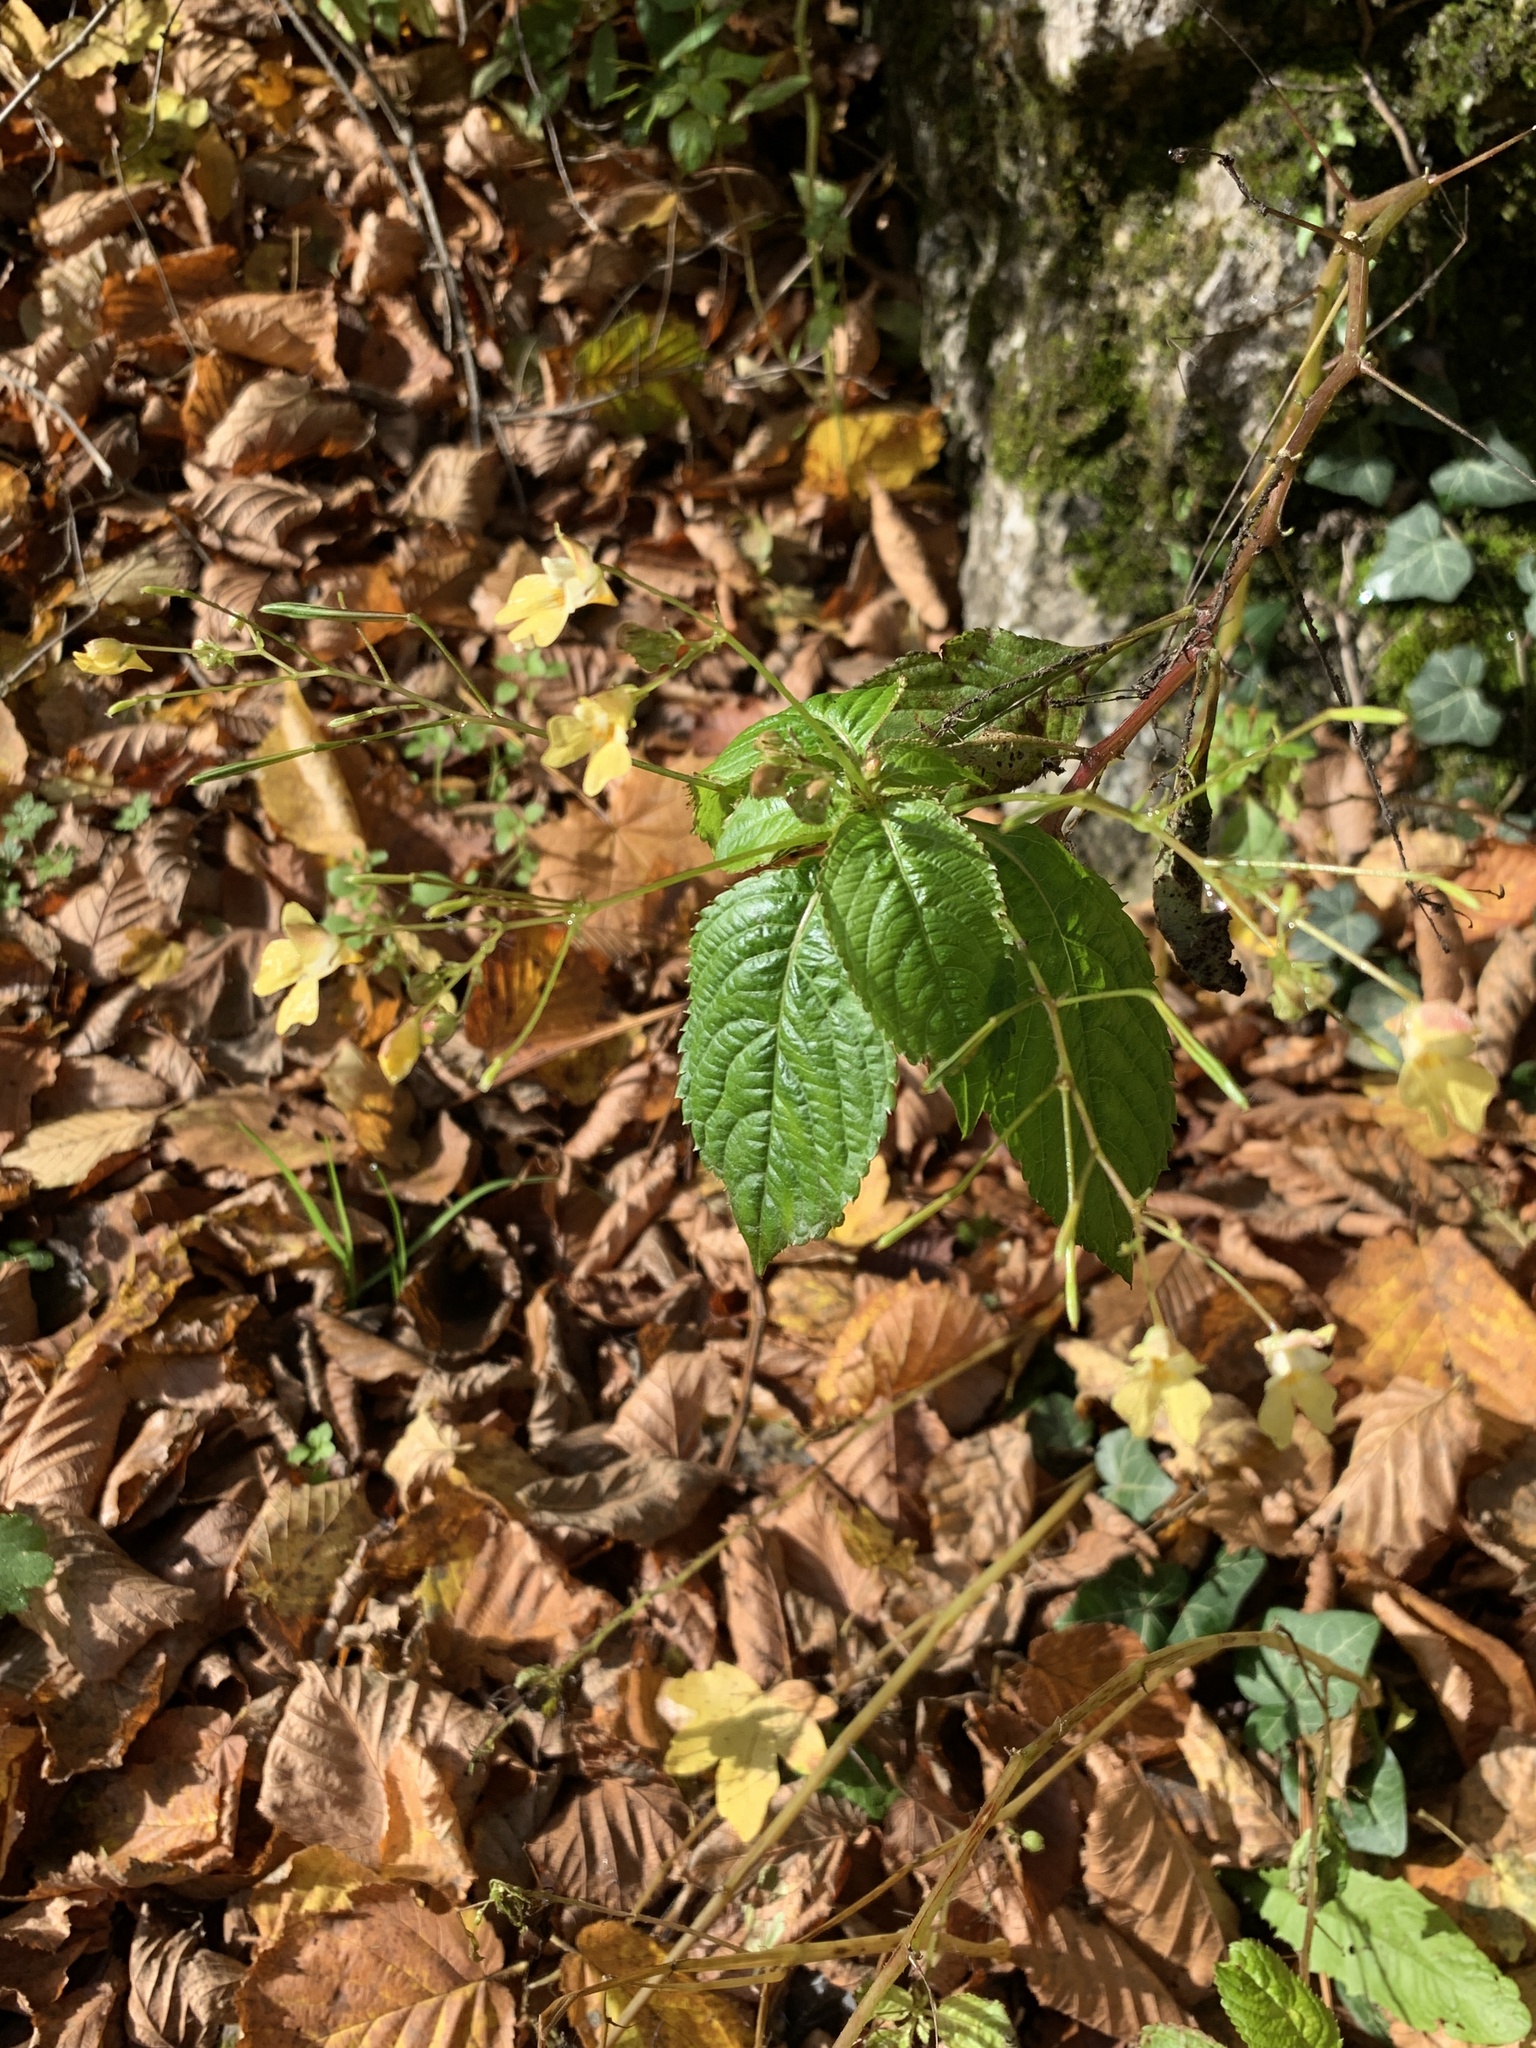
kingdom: Plantae
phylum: Tracheophyta
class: Magnoliopsida
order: Ericales
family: Balsaminaceae
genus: Impatiens
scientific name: Impatiens parviflora
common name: Small balsam
